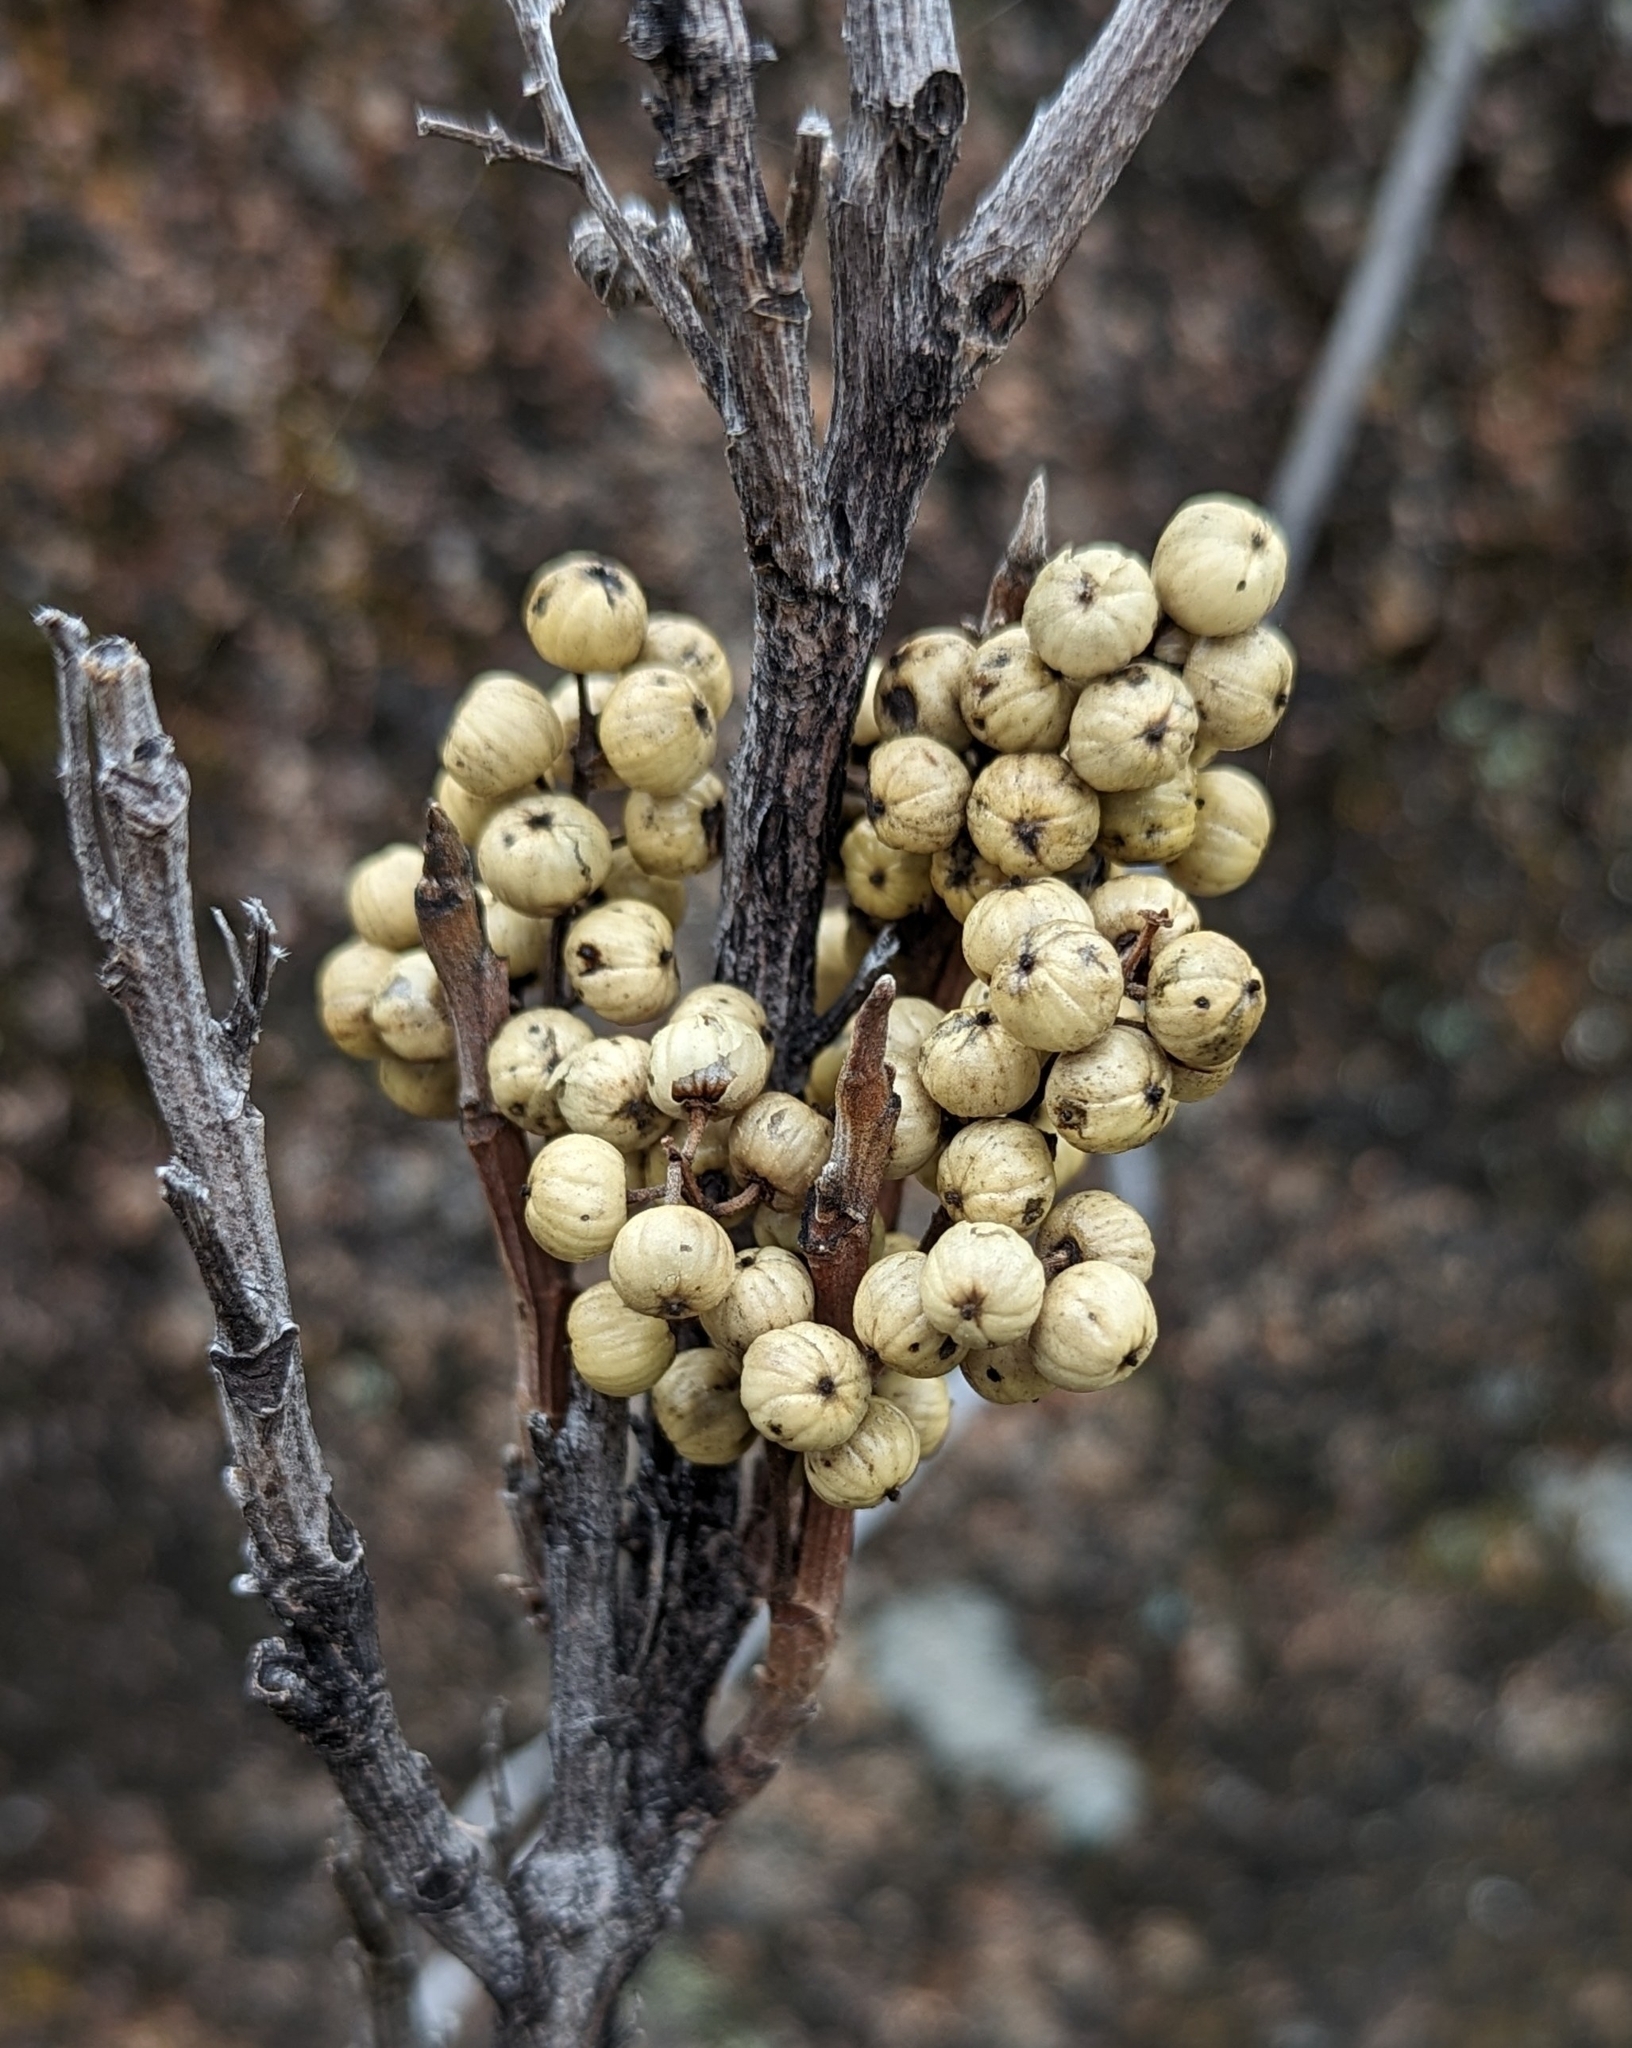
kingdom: Plantae
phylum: Tracheophyta
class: Magnoliopsida
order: Sapindales
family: Anacardiaceae
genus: Toxicodendron
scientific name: Toxicodendron rydbergii
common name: Rydberg's poison-ivy
